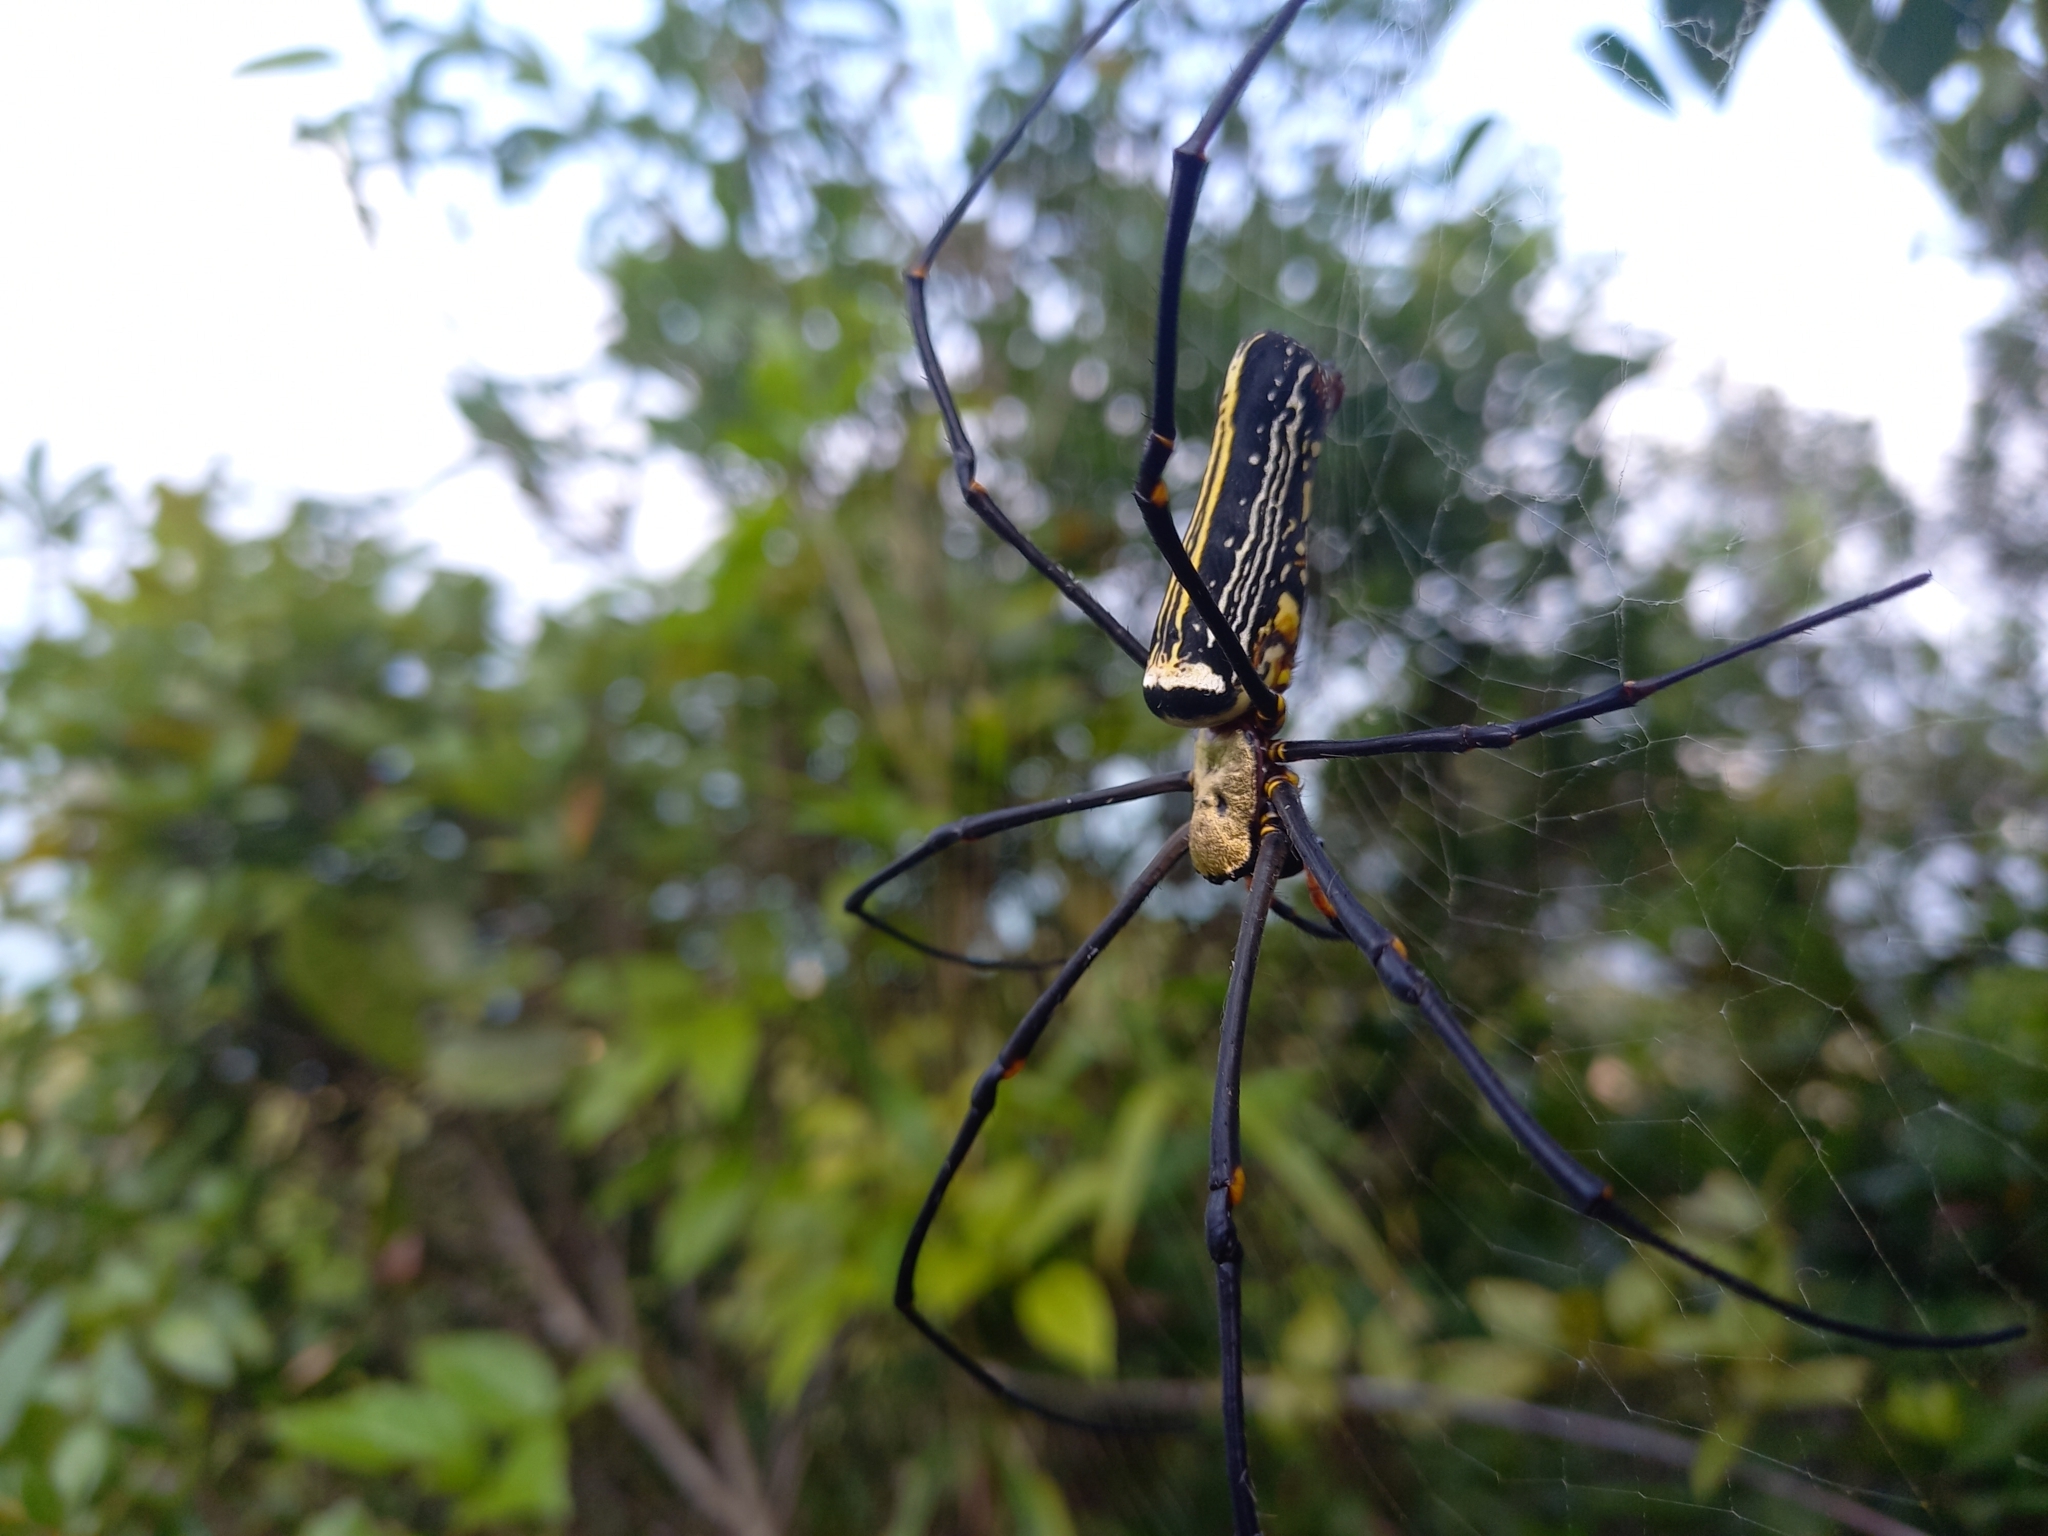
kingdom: Animalia
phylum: Arthropoda
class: Arachnida
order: Araneae
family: Araneidae
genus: Nephila
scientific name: Nephila pilipes
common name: Giant golden orb weaver
